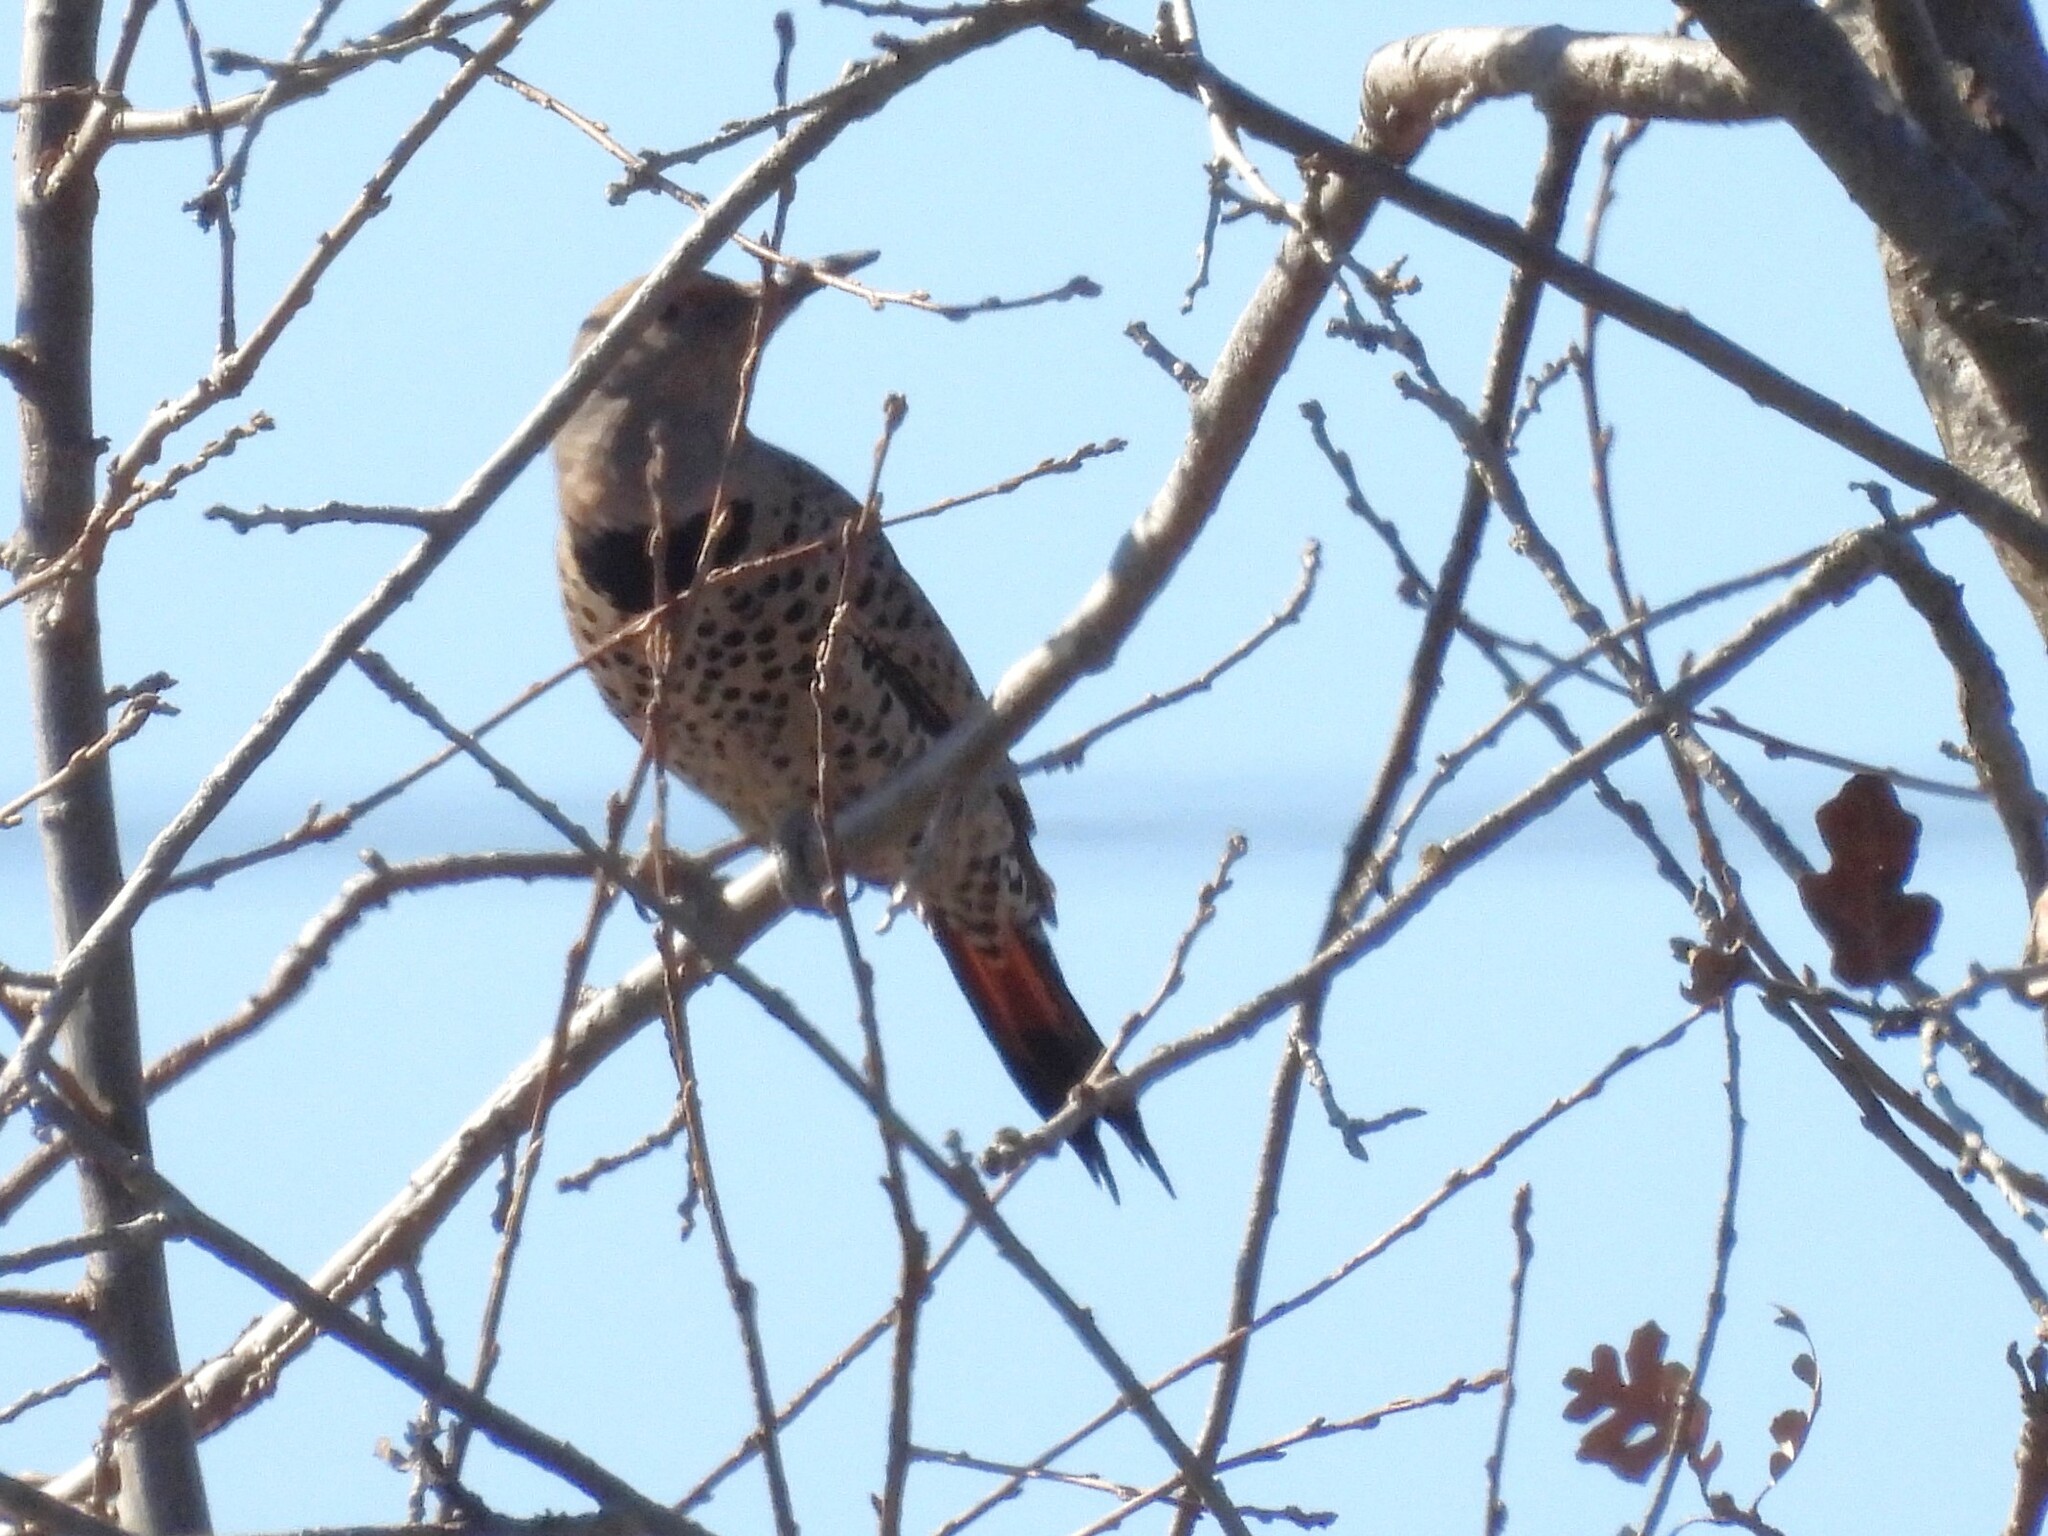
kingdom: Animalia
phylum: Chordata
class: Aves
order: Piciformes
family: Picidae
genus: Colaptes
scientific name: Colaptes auratus
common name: Northern flicker
